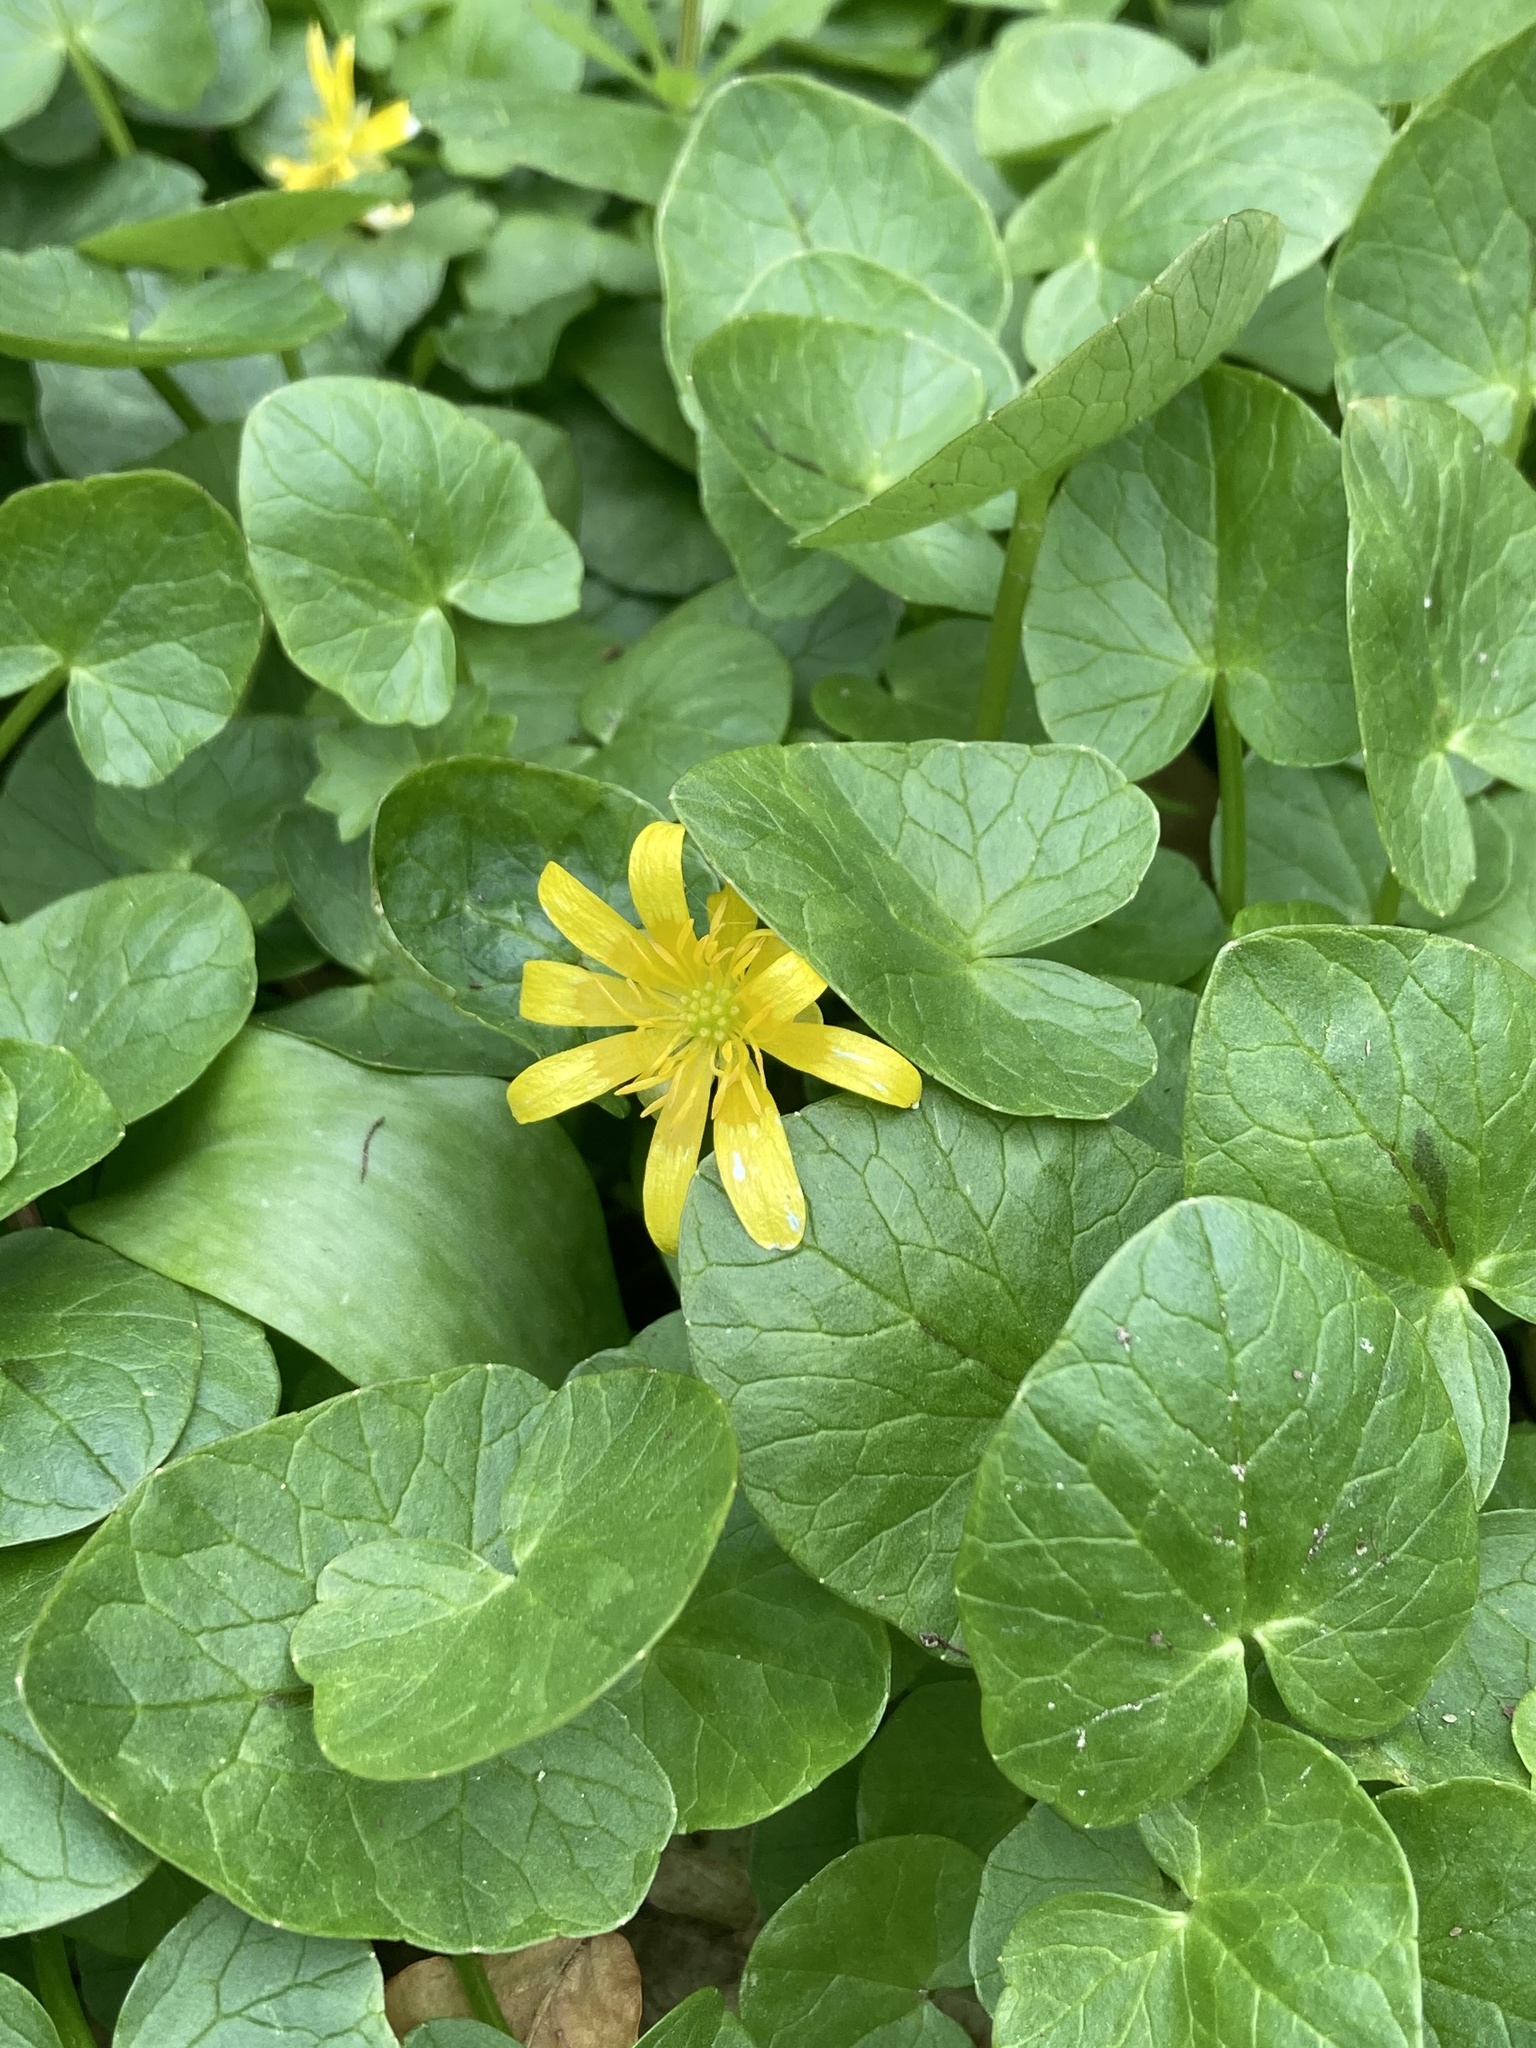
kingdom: Plantae
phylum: Tracheophyta
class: Magnoliopsida
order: Ranunculales
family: Ranunculaceae
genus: Ficaria
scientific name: Ficaria verna
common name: Lesser celandine
